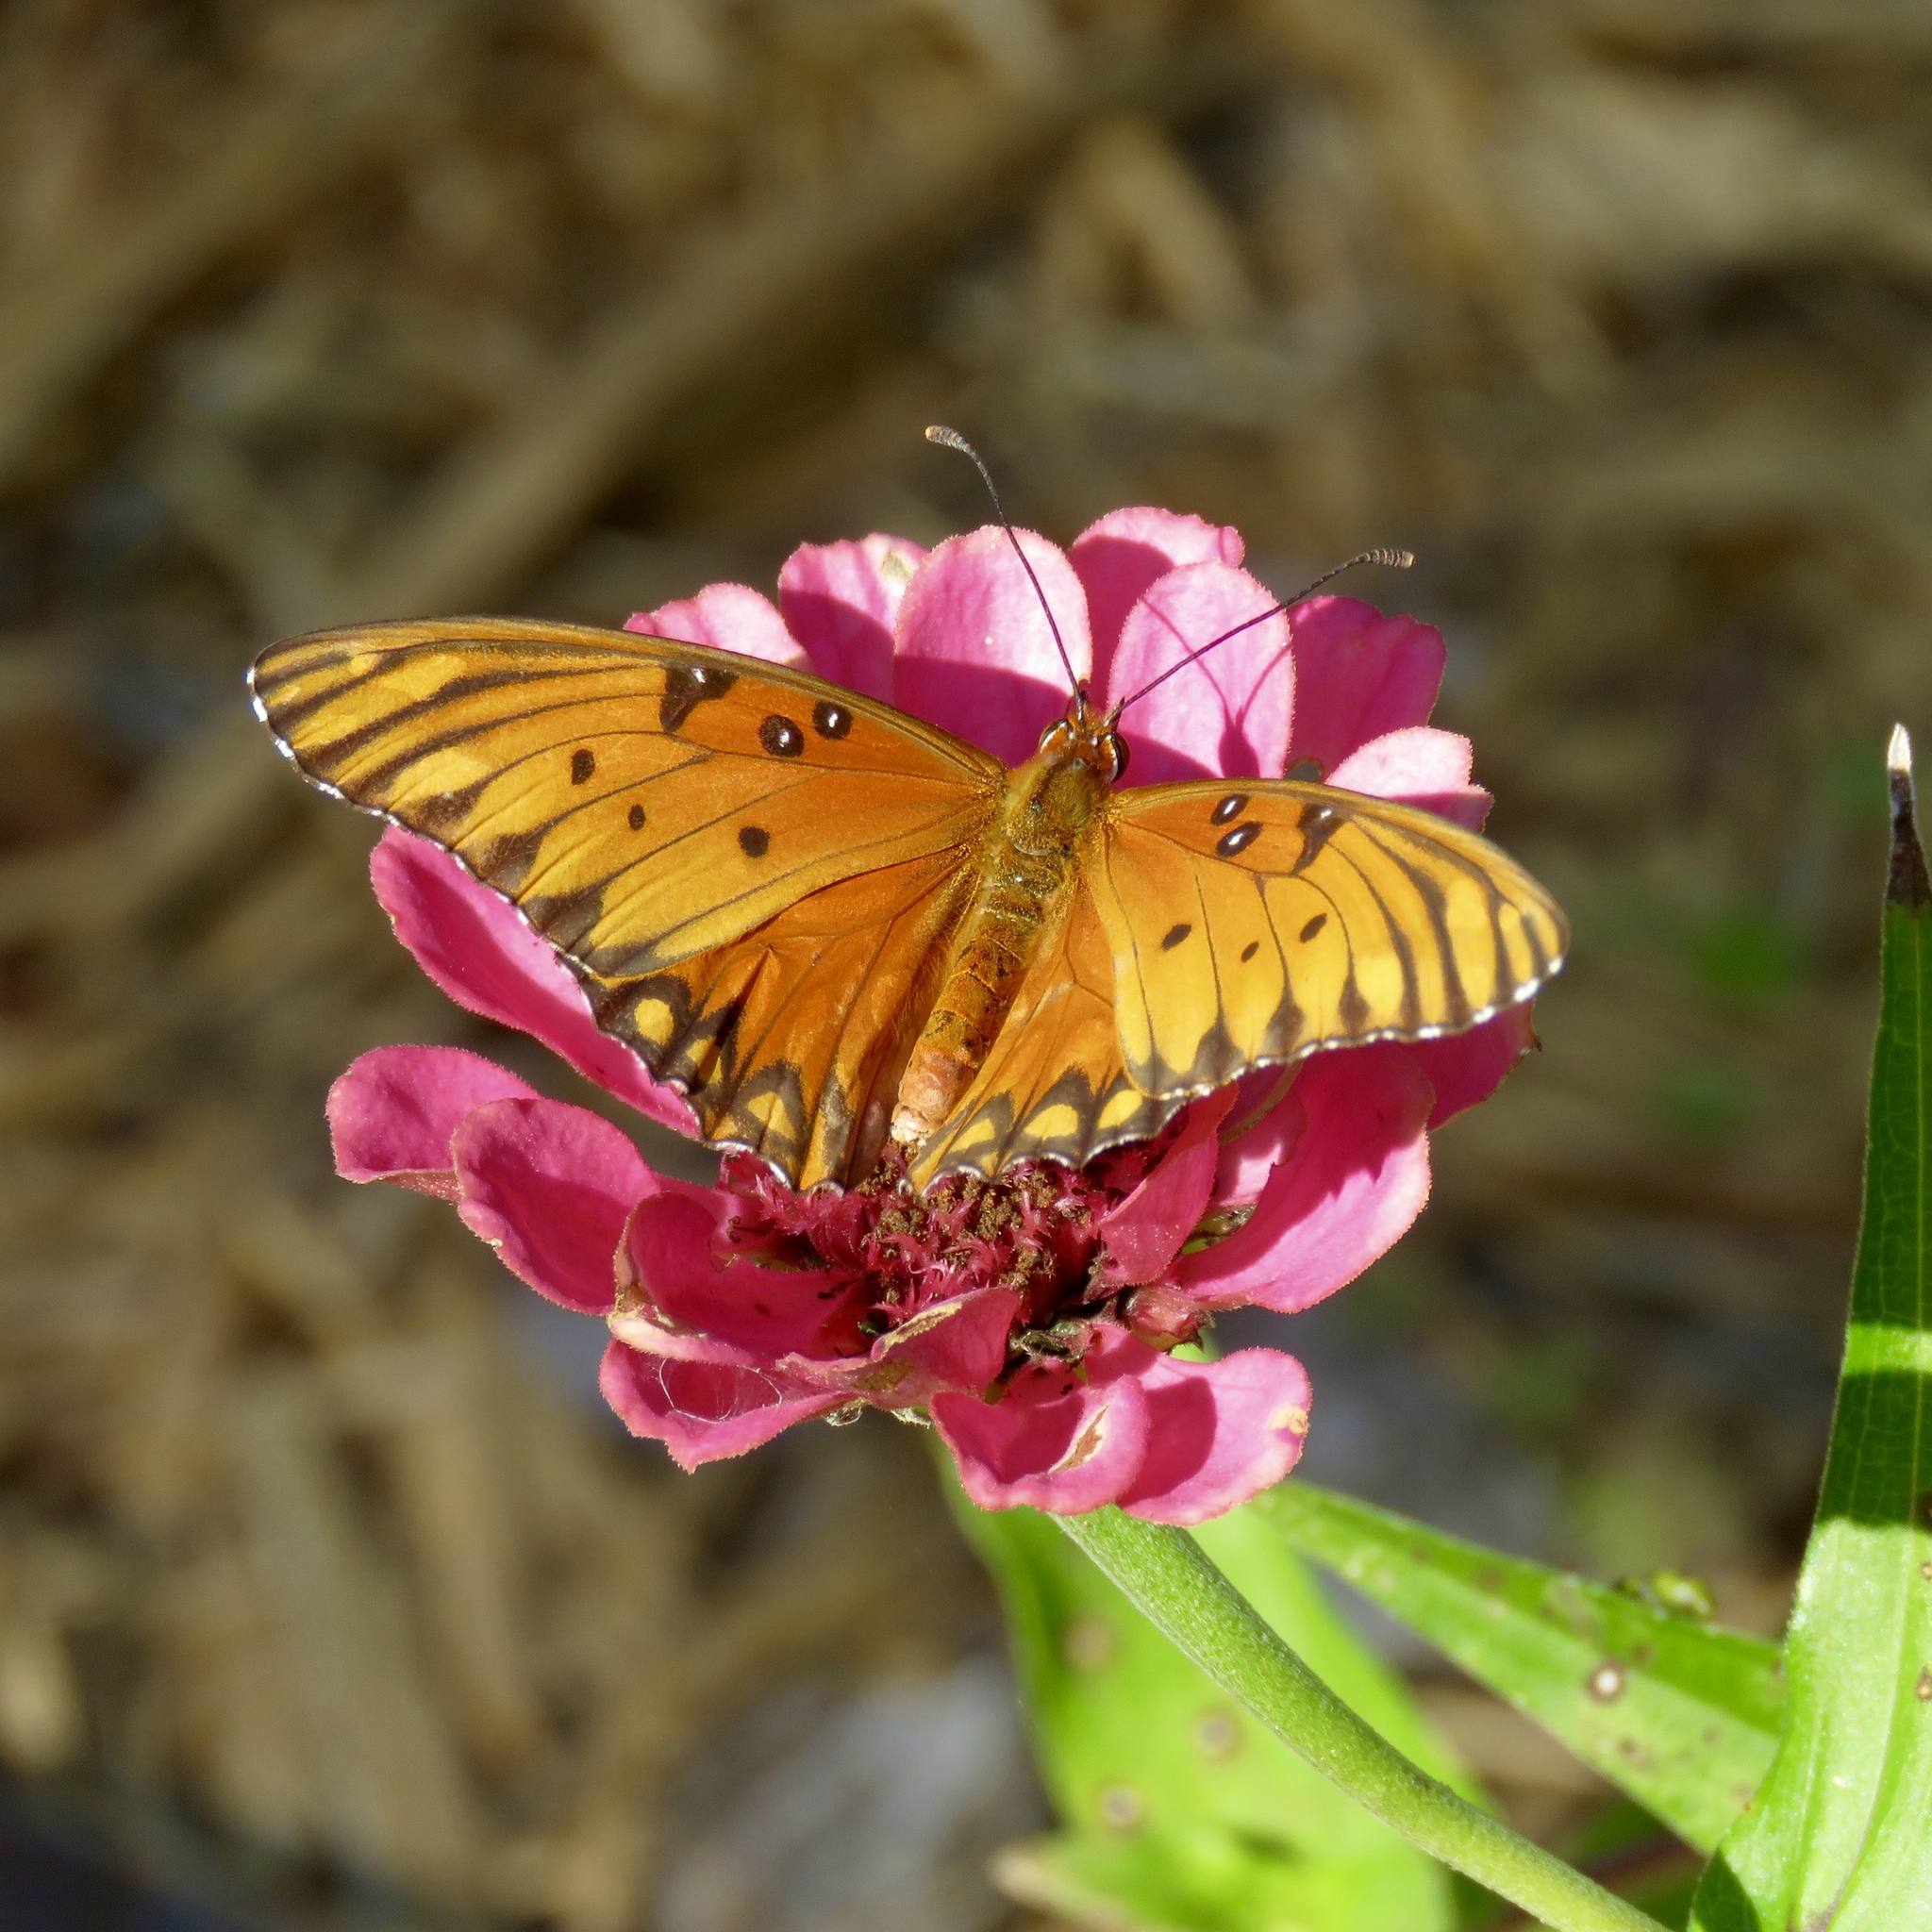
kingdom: Animalia
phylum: Arthropoda
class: Insecta
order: Lepidoptera
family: Nymphalidae
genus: Dione
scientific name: Dione vanillae
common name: Gulf fritillary
